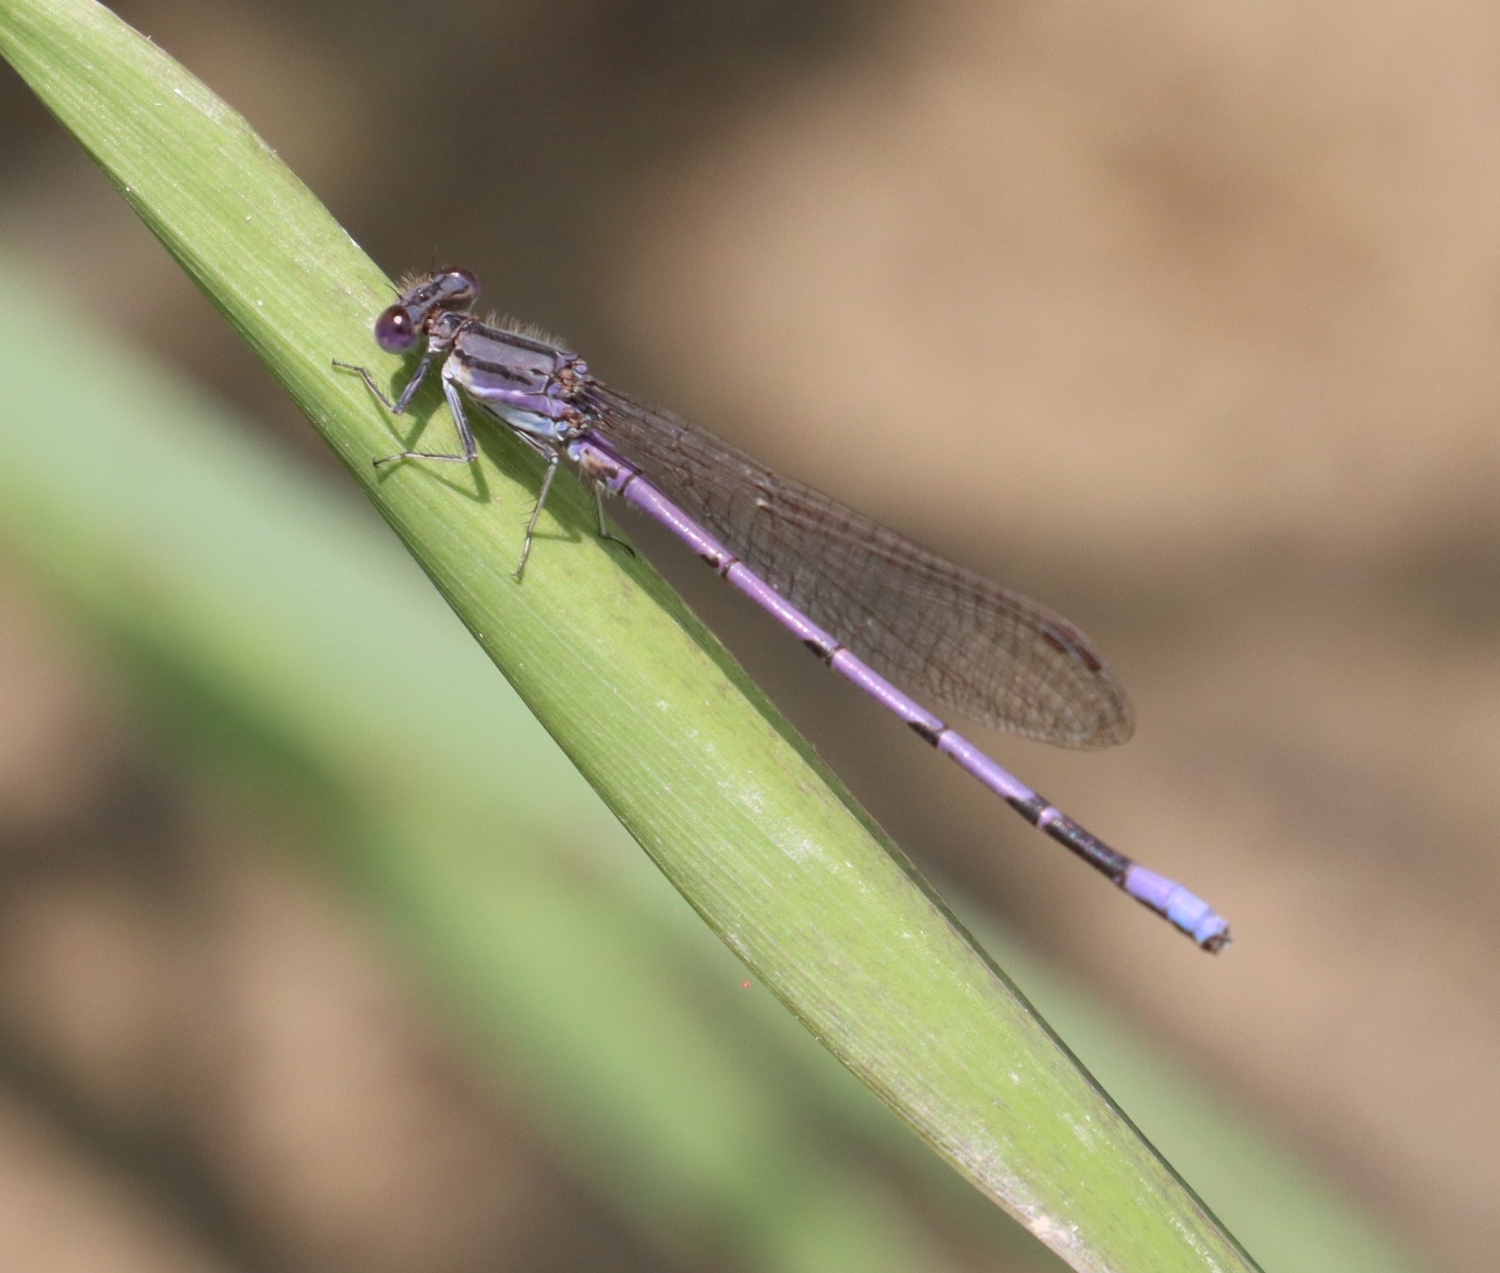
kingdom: Animalia
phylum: Arthropoda
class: Insecta
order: Odonata
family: Coenagrionidae
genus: Argia
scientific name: Argia fumipennis
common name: Variable dancer
